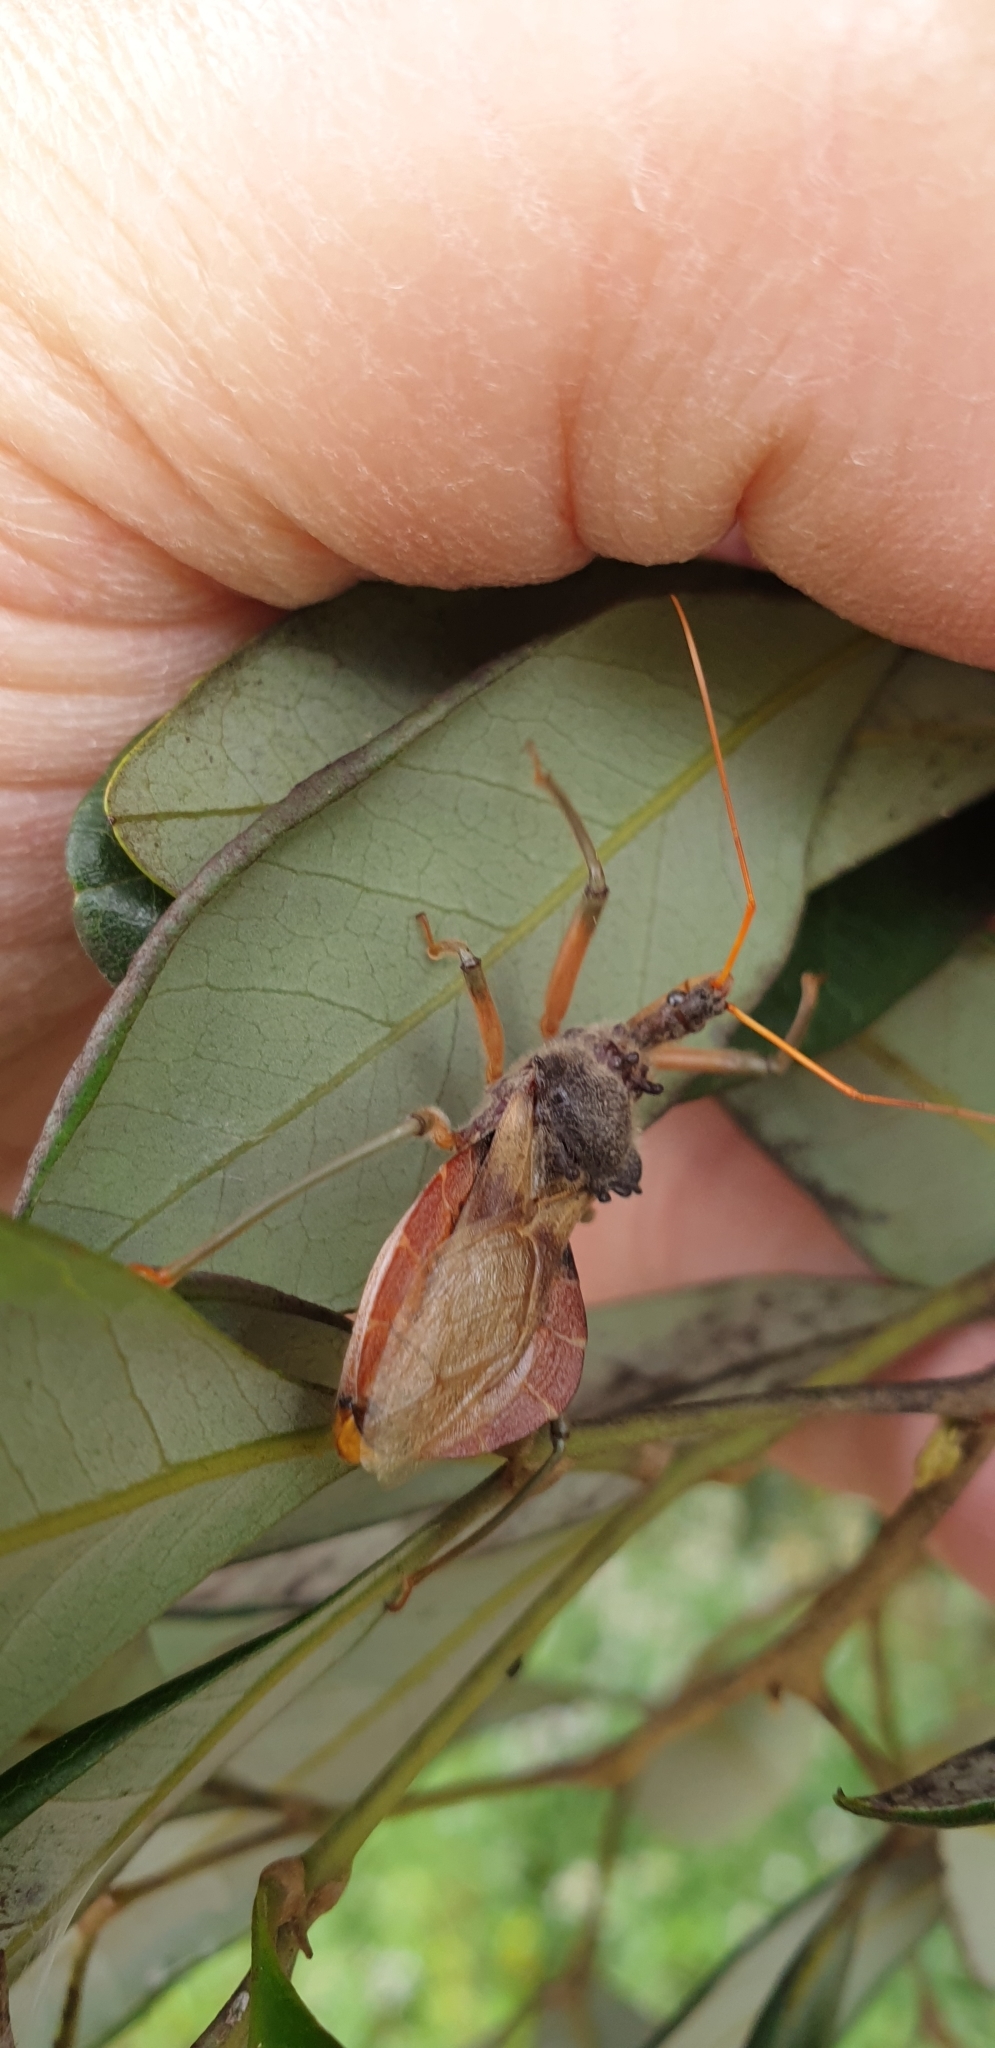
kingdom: Animalia
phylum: Arthropoda
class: Insecta
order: Hemiptera
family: Reduviidae
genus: Pristhesancus
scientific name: Pristhesancus plagipennis
